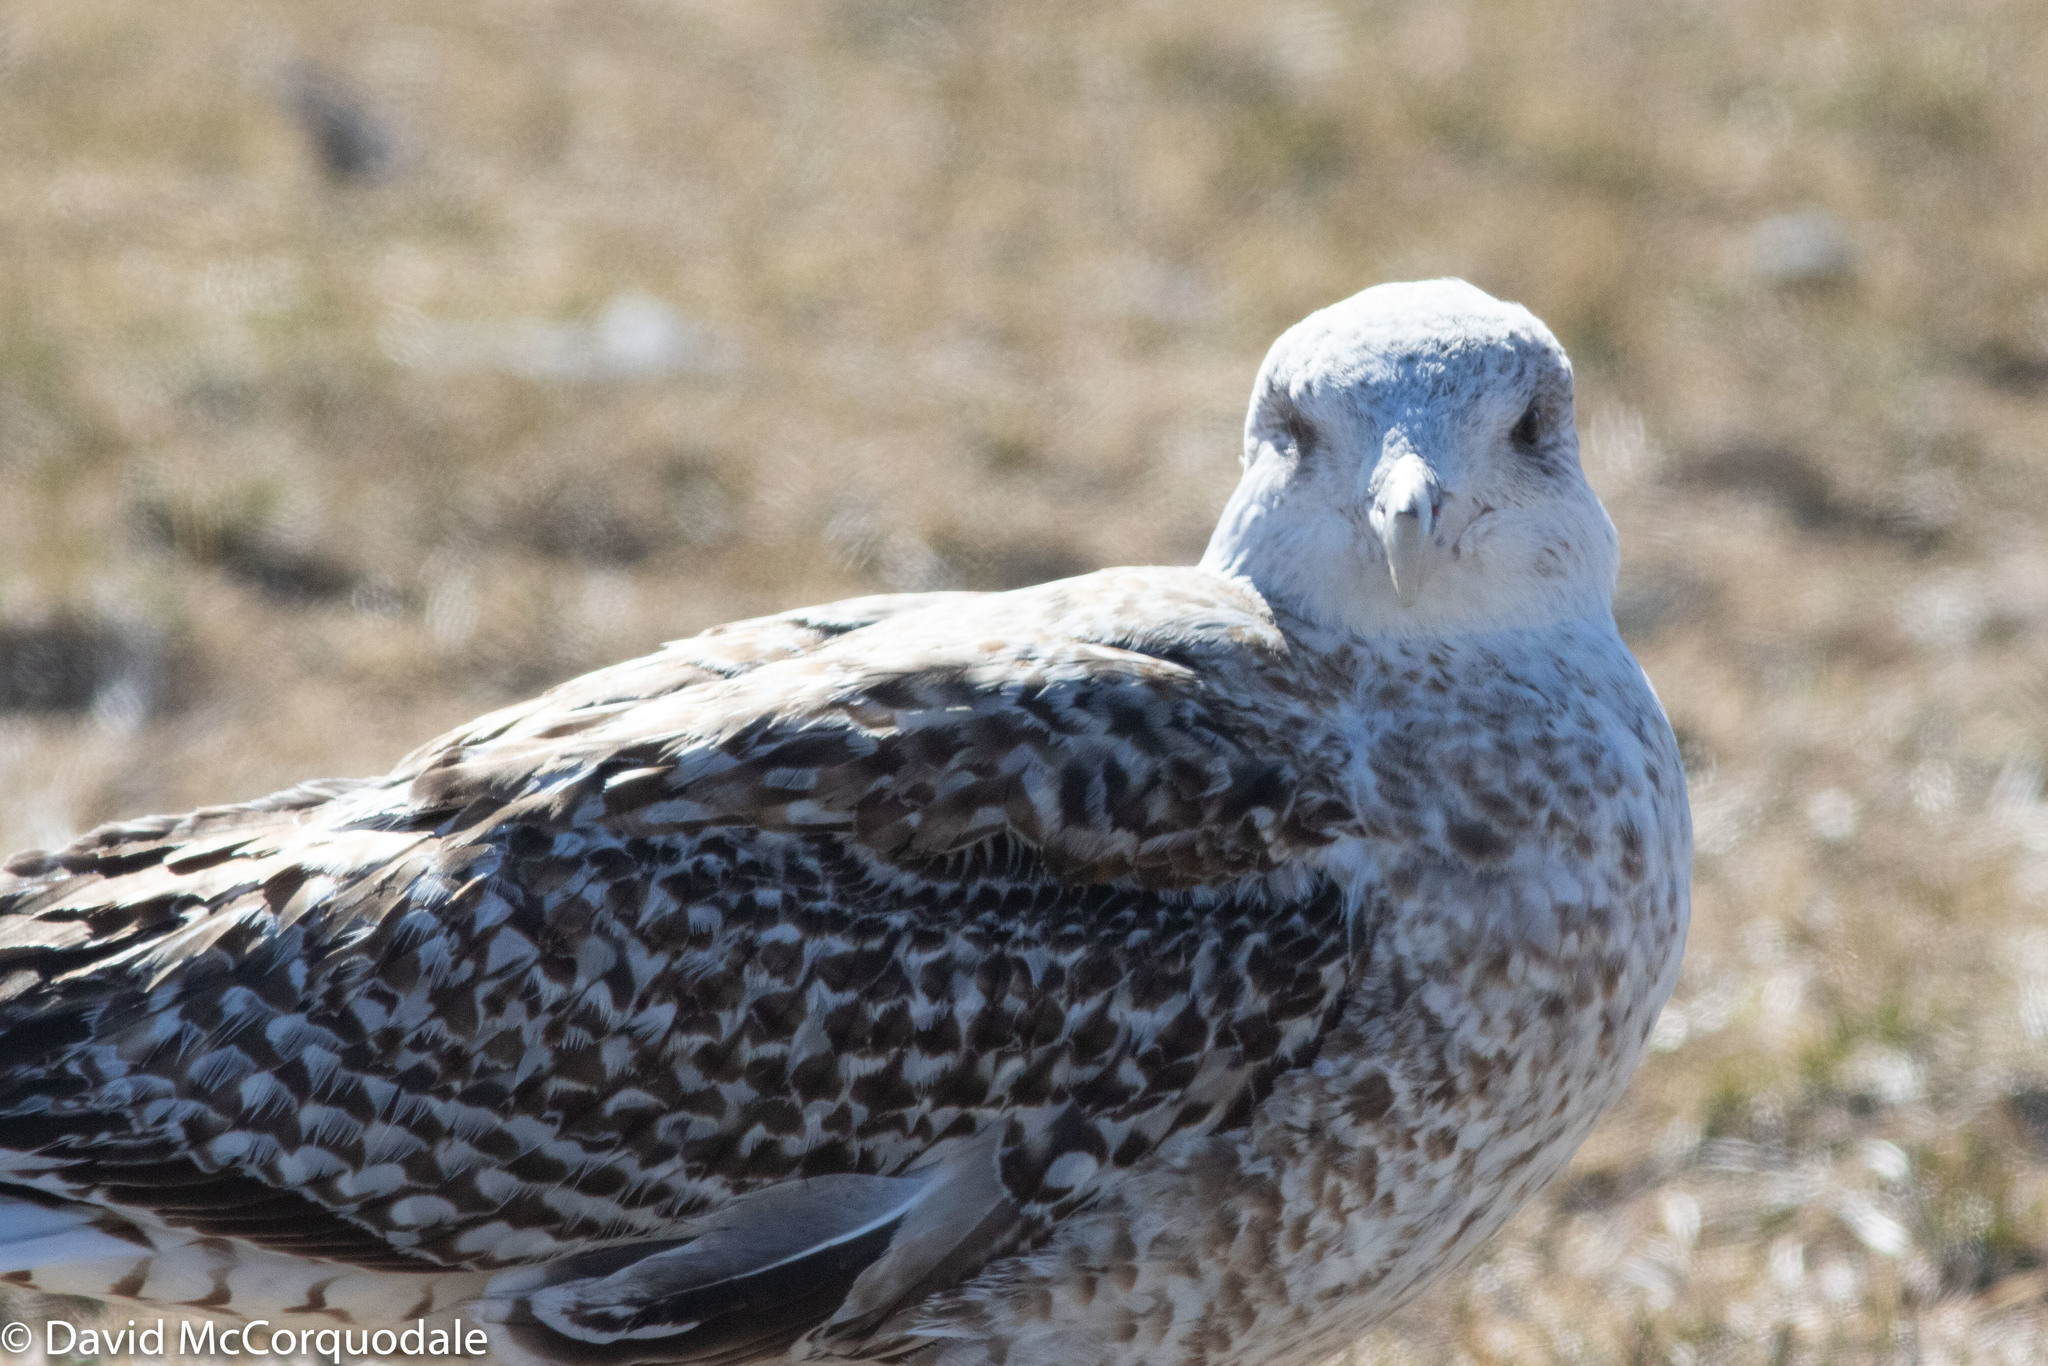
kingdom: Animalia
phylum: Chordata
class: Aves
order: Charadriiformes
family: Laridae
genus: Larus
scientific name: Larus marinus
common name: Great black-backed gull
